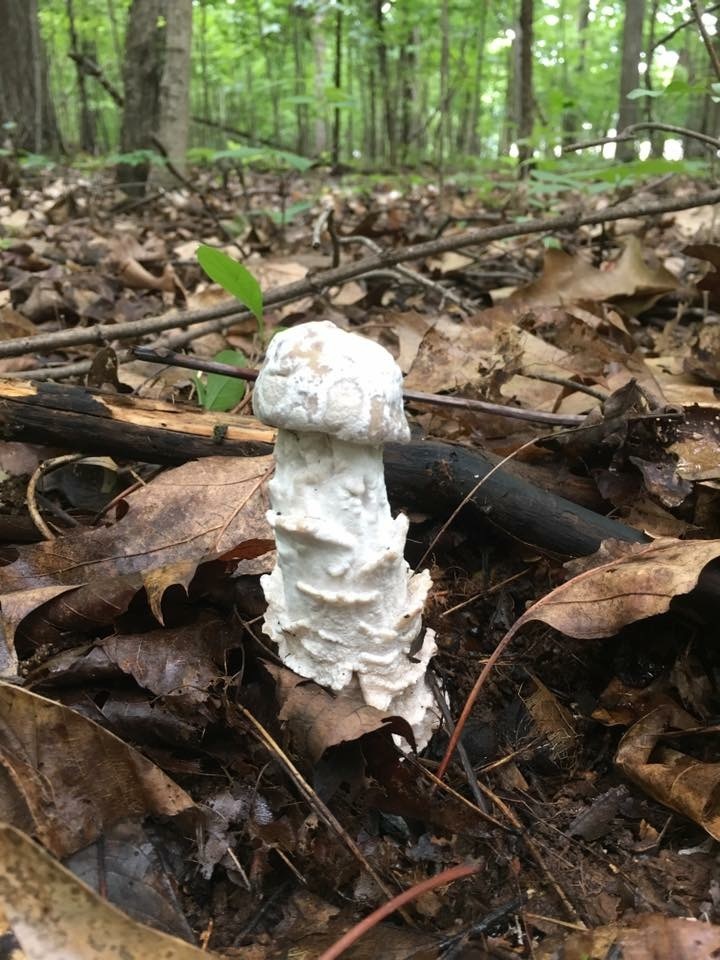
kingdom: Fungi
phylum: Ascomycota
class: Sordariomycetes
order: Hypocreales
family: Hypocreaceae
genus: Hypomyces
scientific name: Hypomyces hyalinus
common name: Amanita mold
